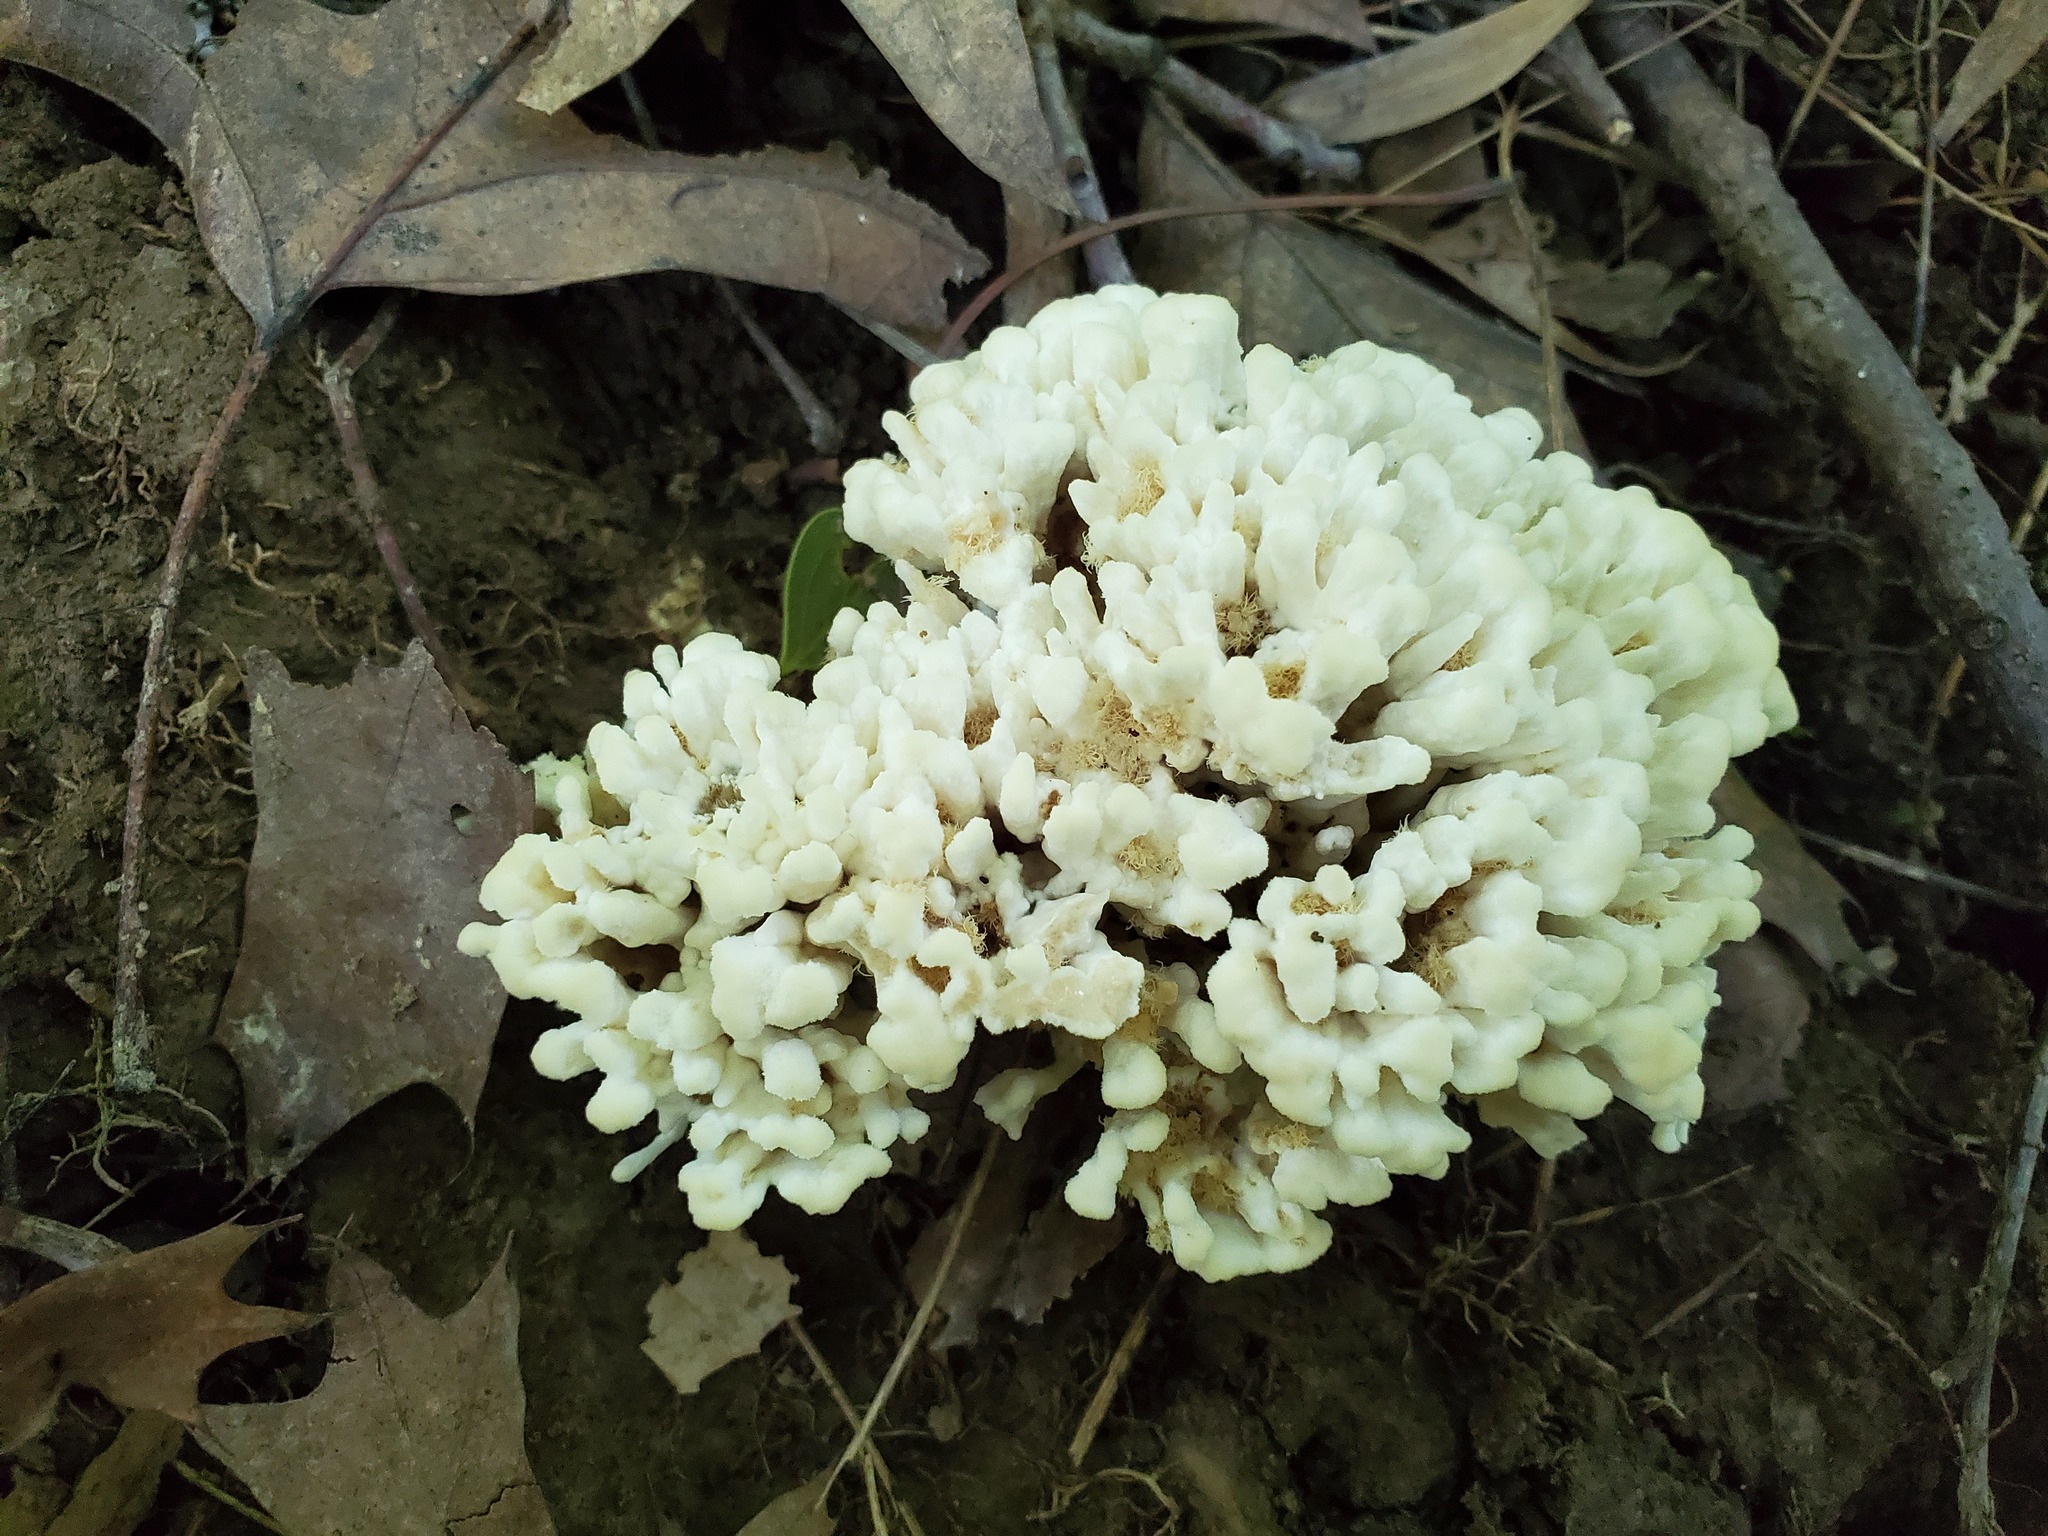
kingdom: Fungi
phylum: Basidiomycota
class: Agaricomycetes
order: Sebacinales
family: Sebacinaceae
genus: Sebacina
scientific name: Sebacina schweinitzii
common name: Jellied false coral fungus
